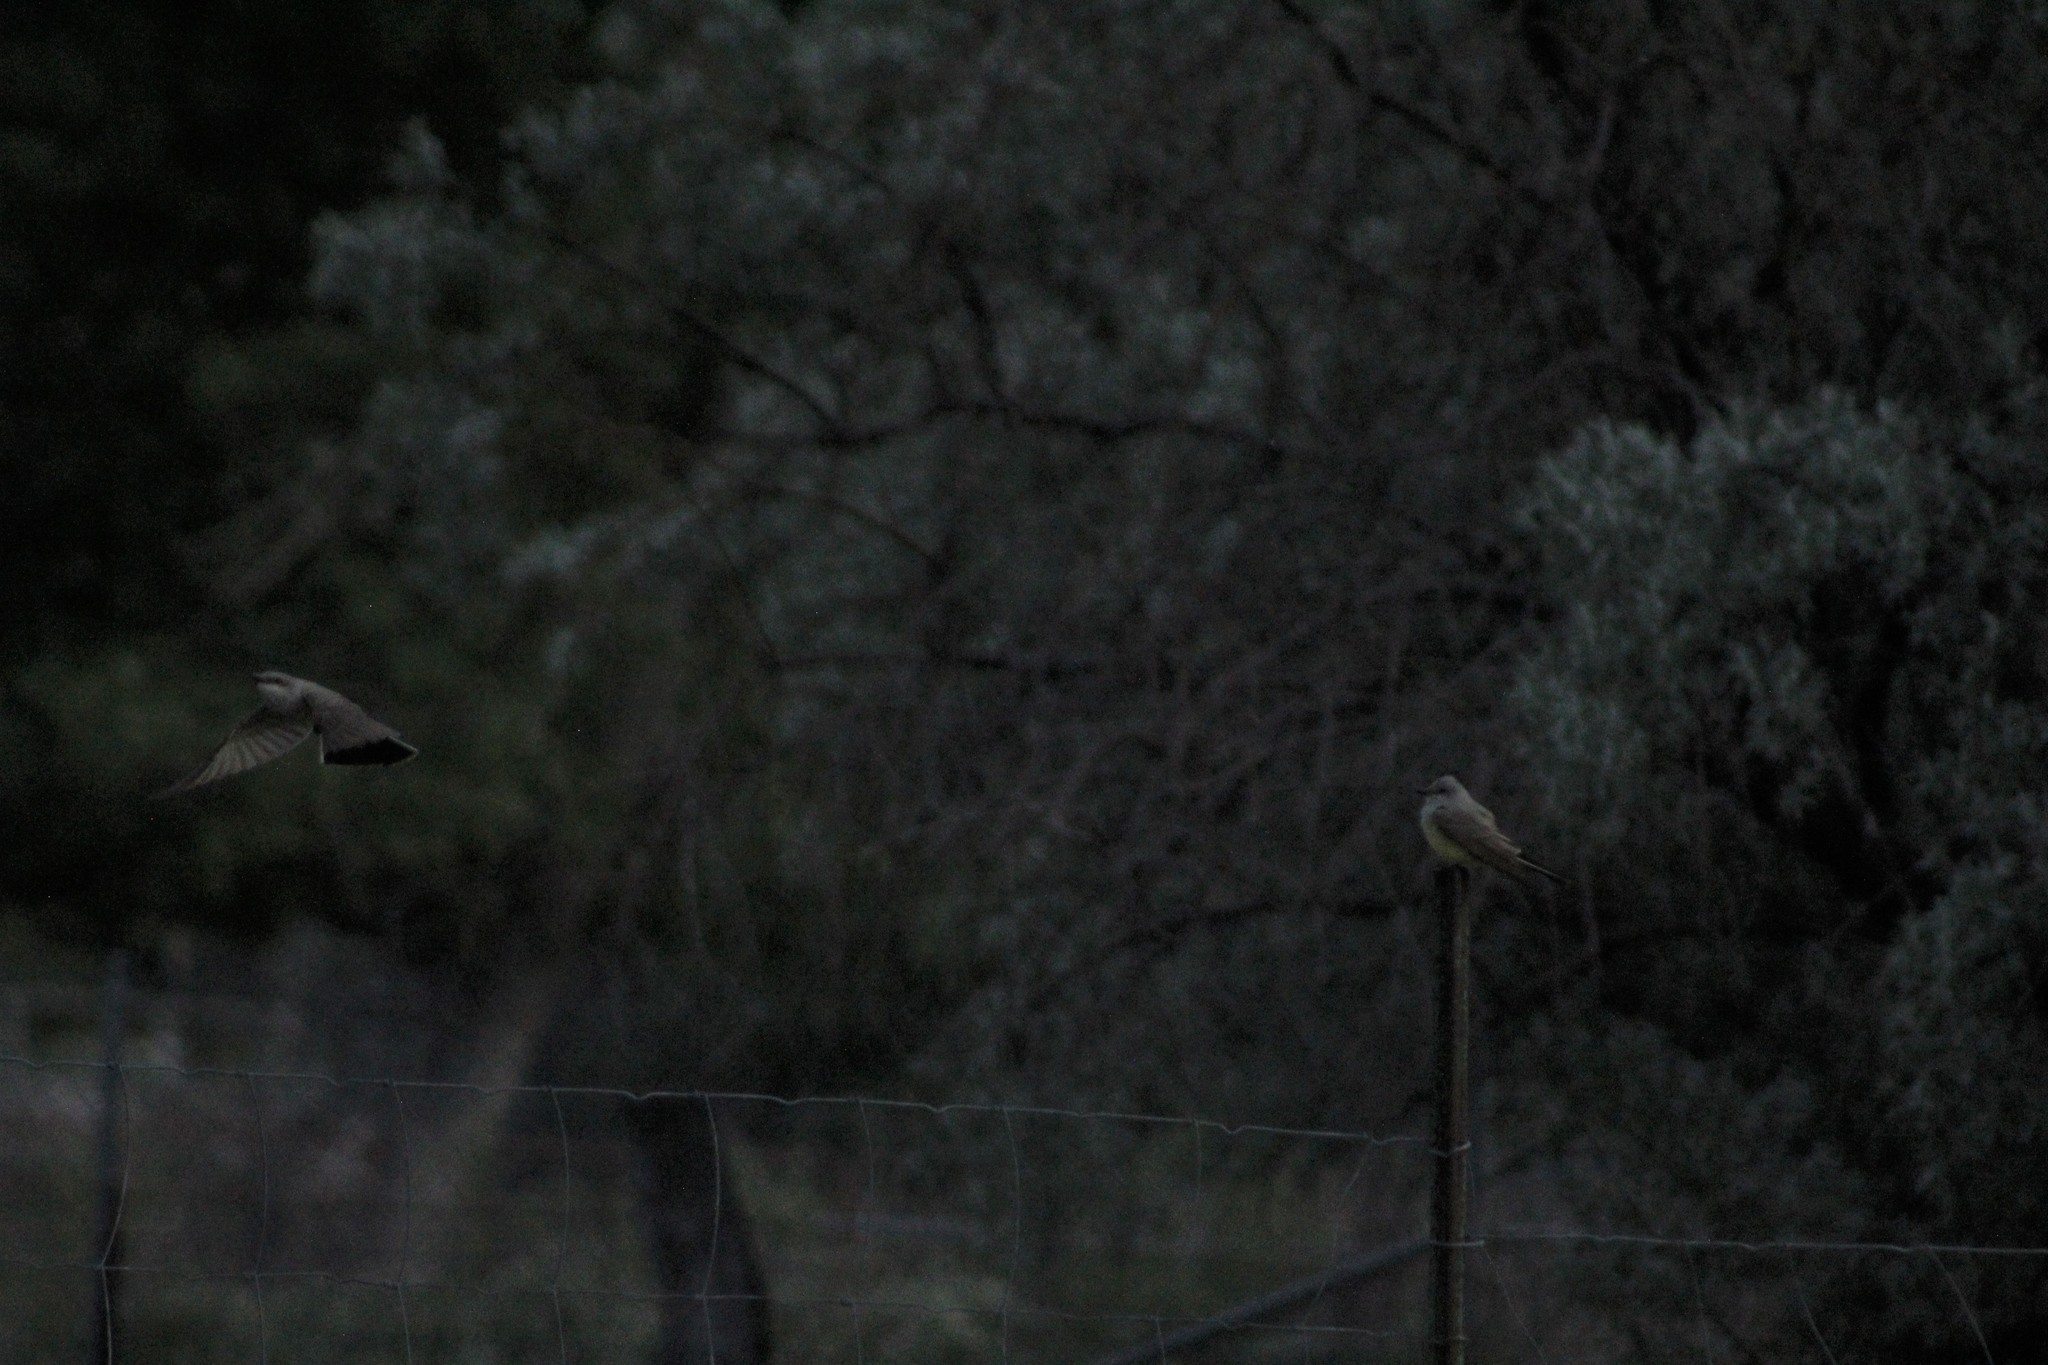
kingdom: Animalia
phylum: Chordata
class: Aves
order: Passeriformes
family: Tyrannidae
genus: Tyrannus
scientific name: Tyrannus verticalis
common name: Western kingbird
